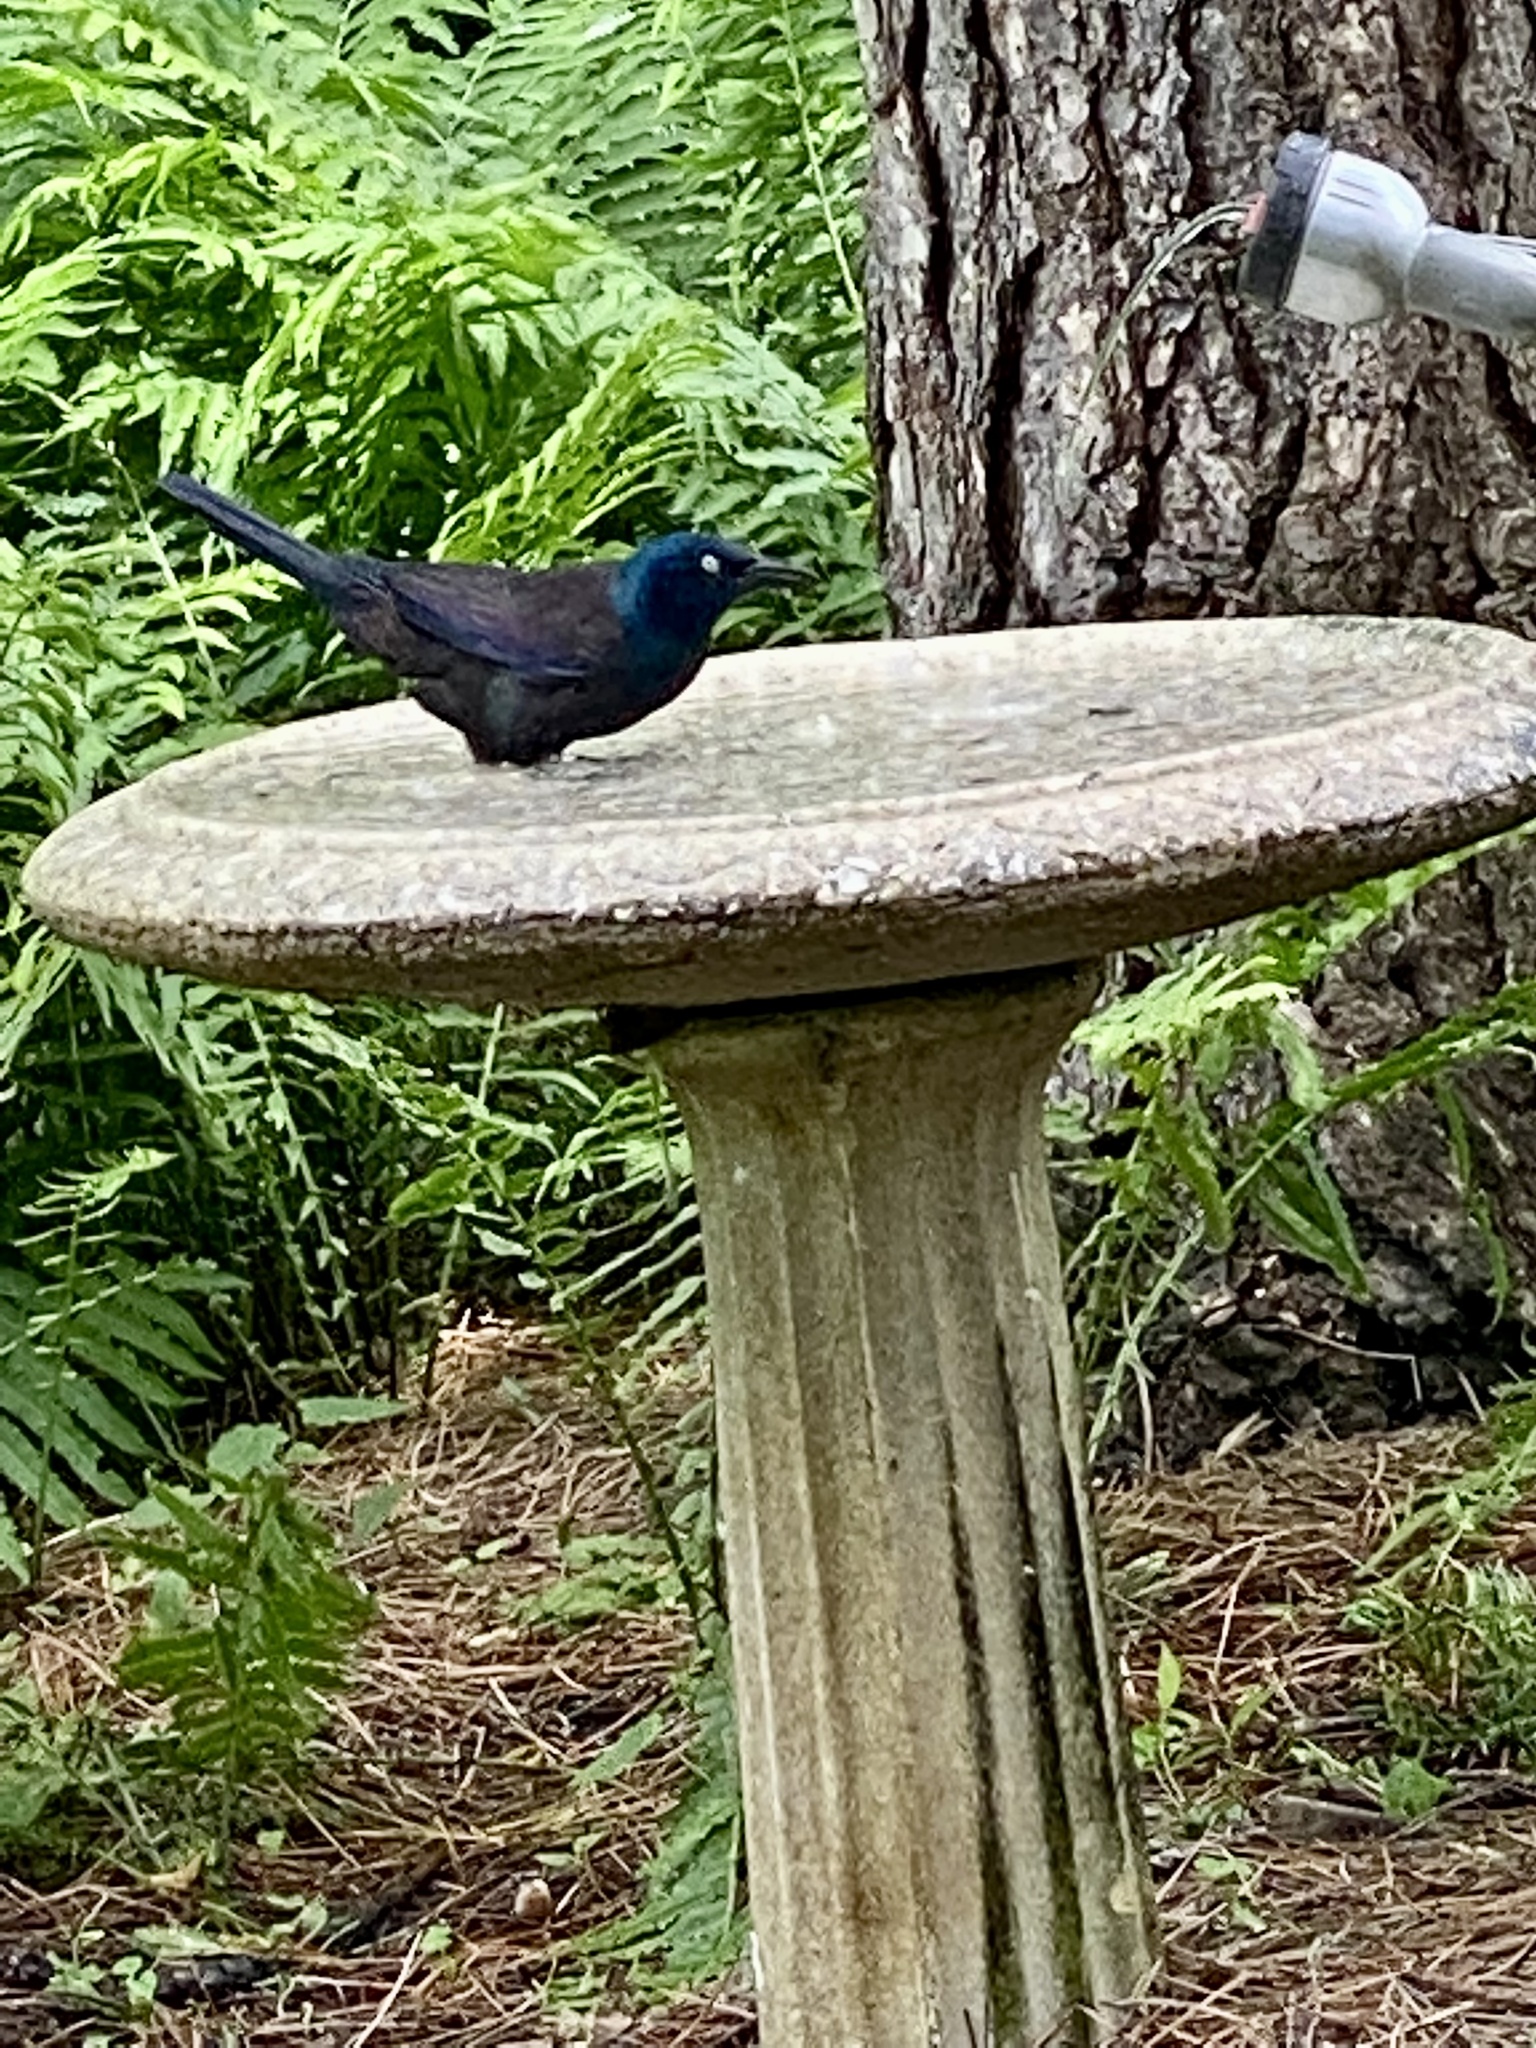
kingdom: Animalia
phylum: Chordata
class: Aves
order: Passeriformes
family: Icteridae
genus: Quiscalus
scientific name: Quiscalus quiscula
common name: Common grackle
